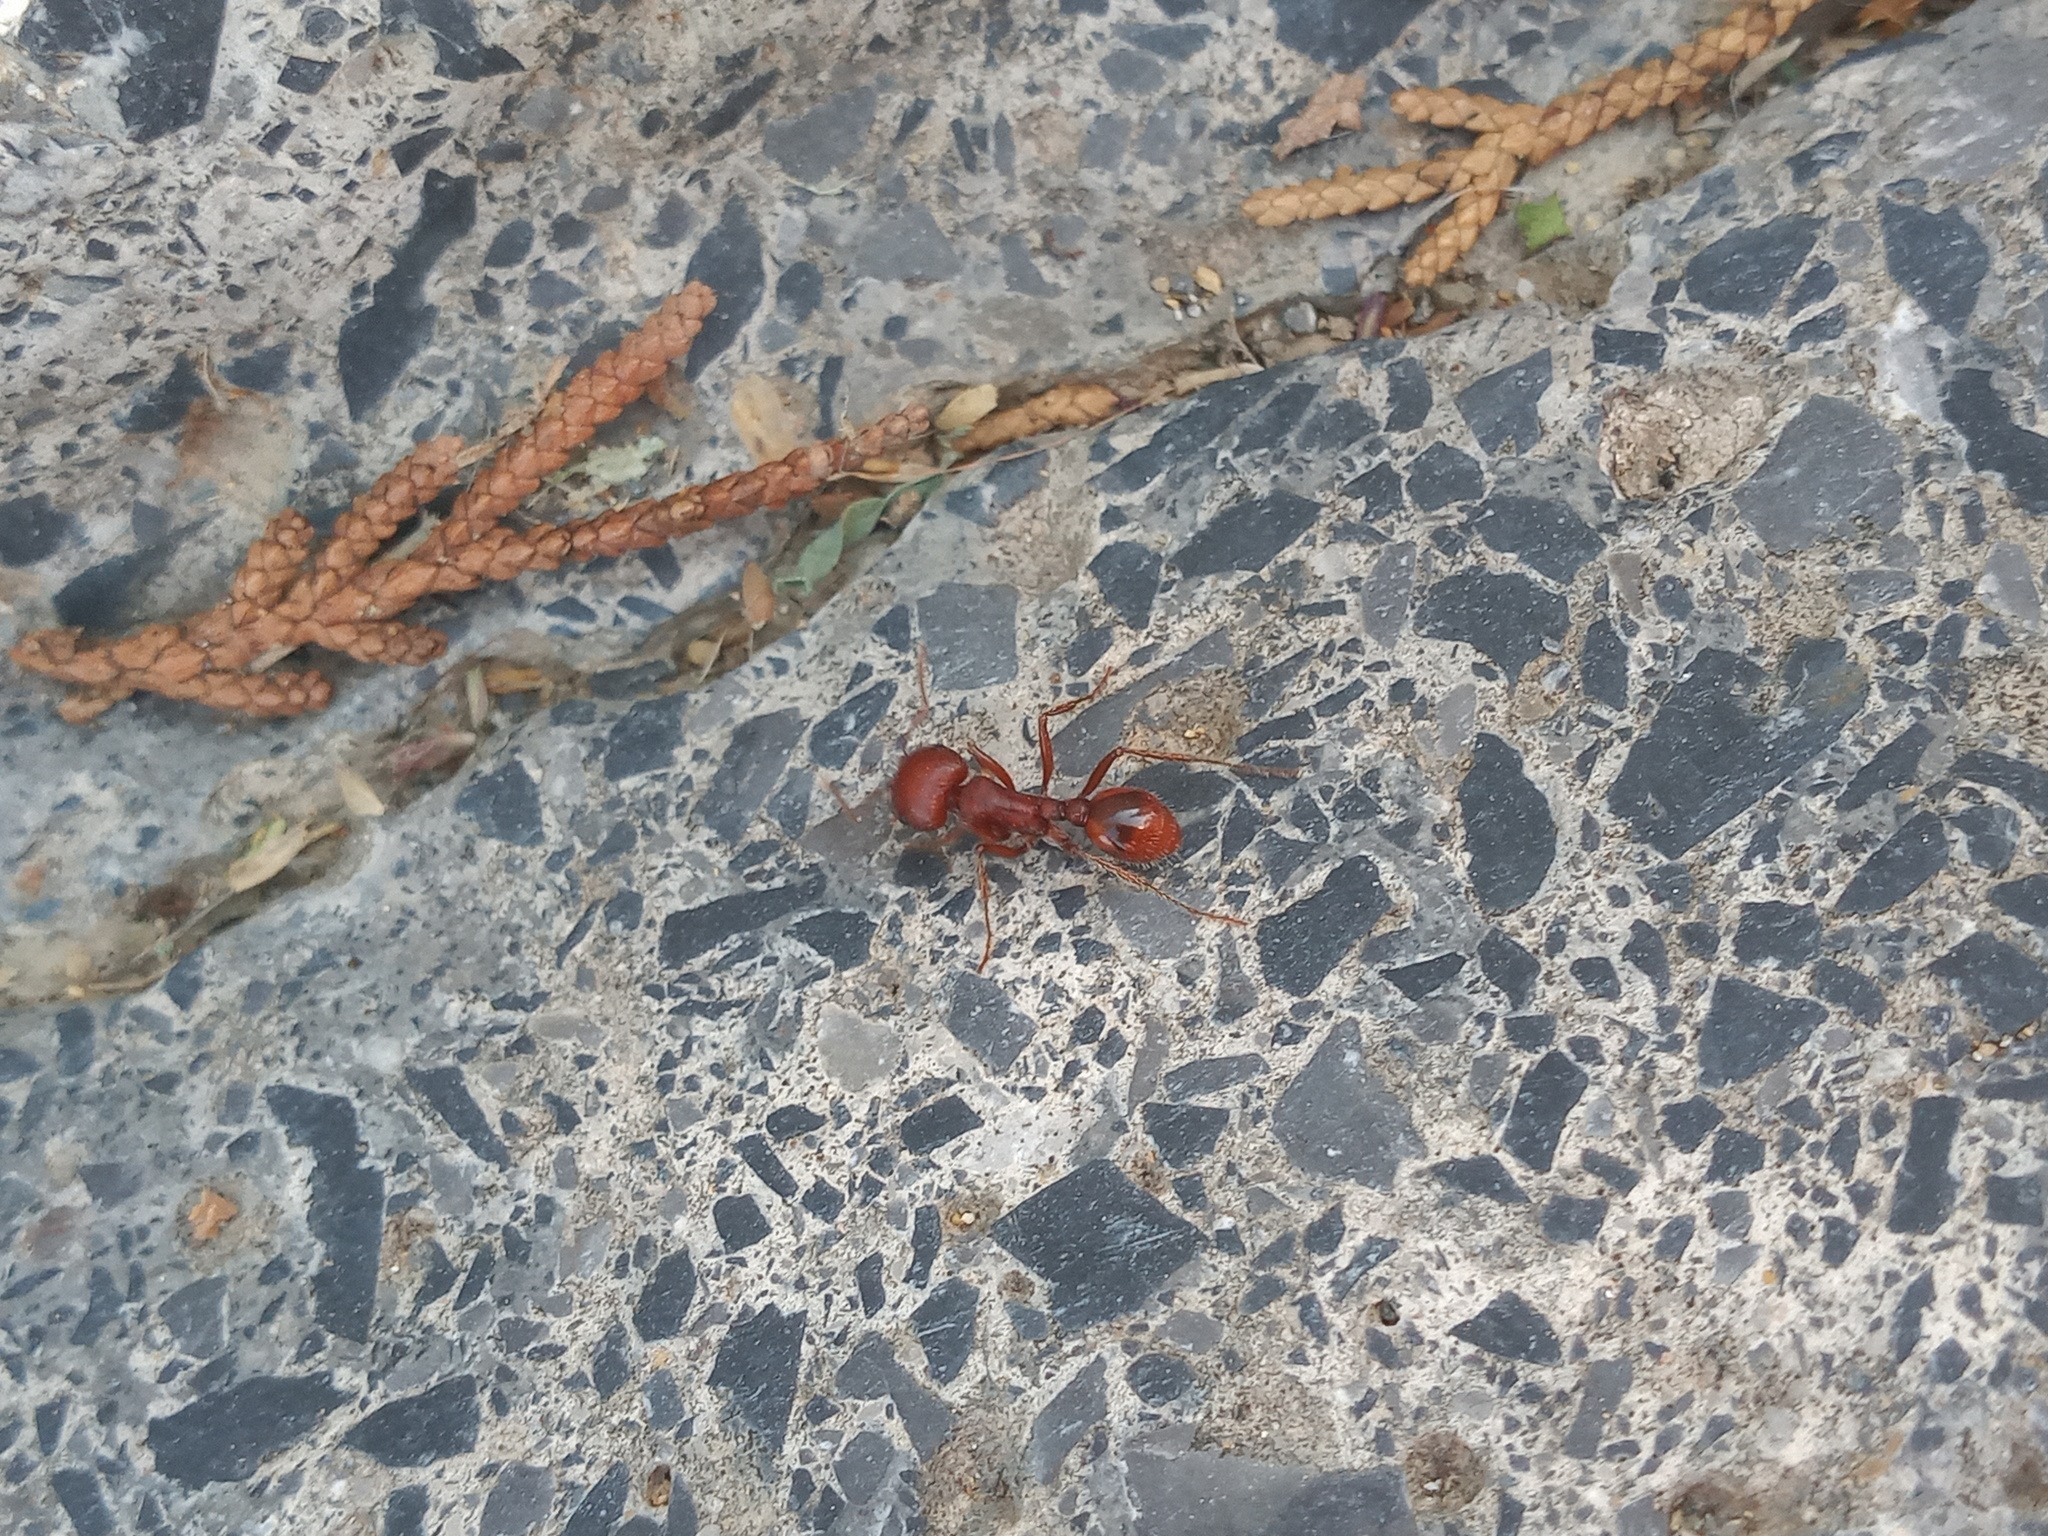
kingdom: Animalia
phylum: Arthropoda
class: Insecta
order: Hymenoptera
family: Formicidae
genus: Pogonomyrmex
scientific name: Pogonomyrmex barbatus
